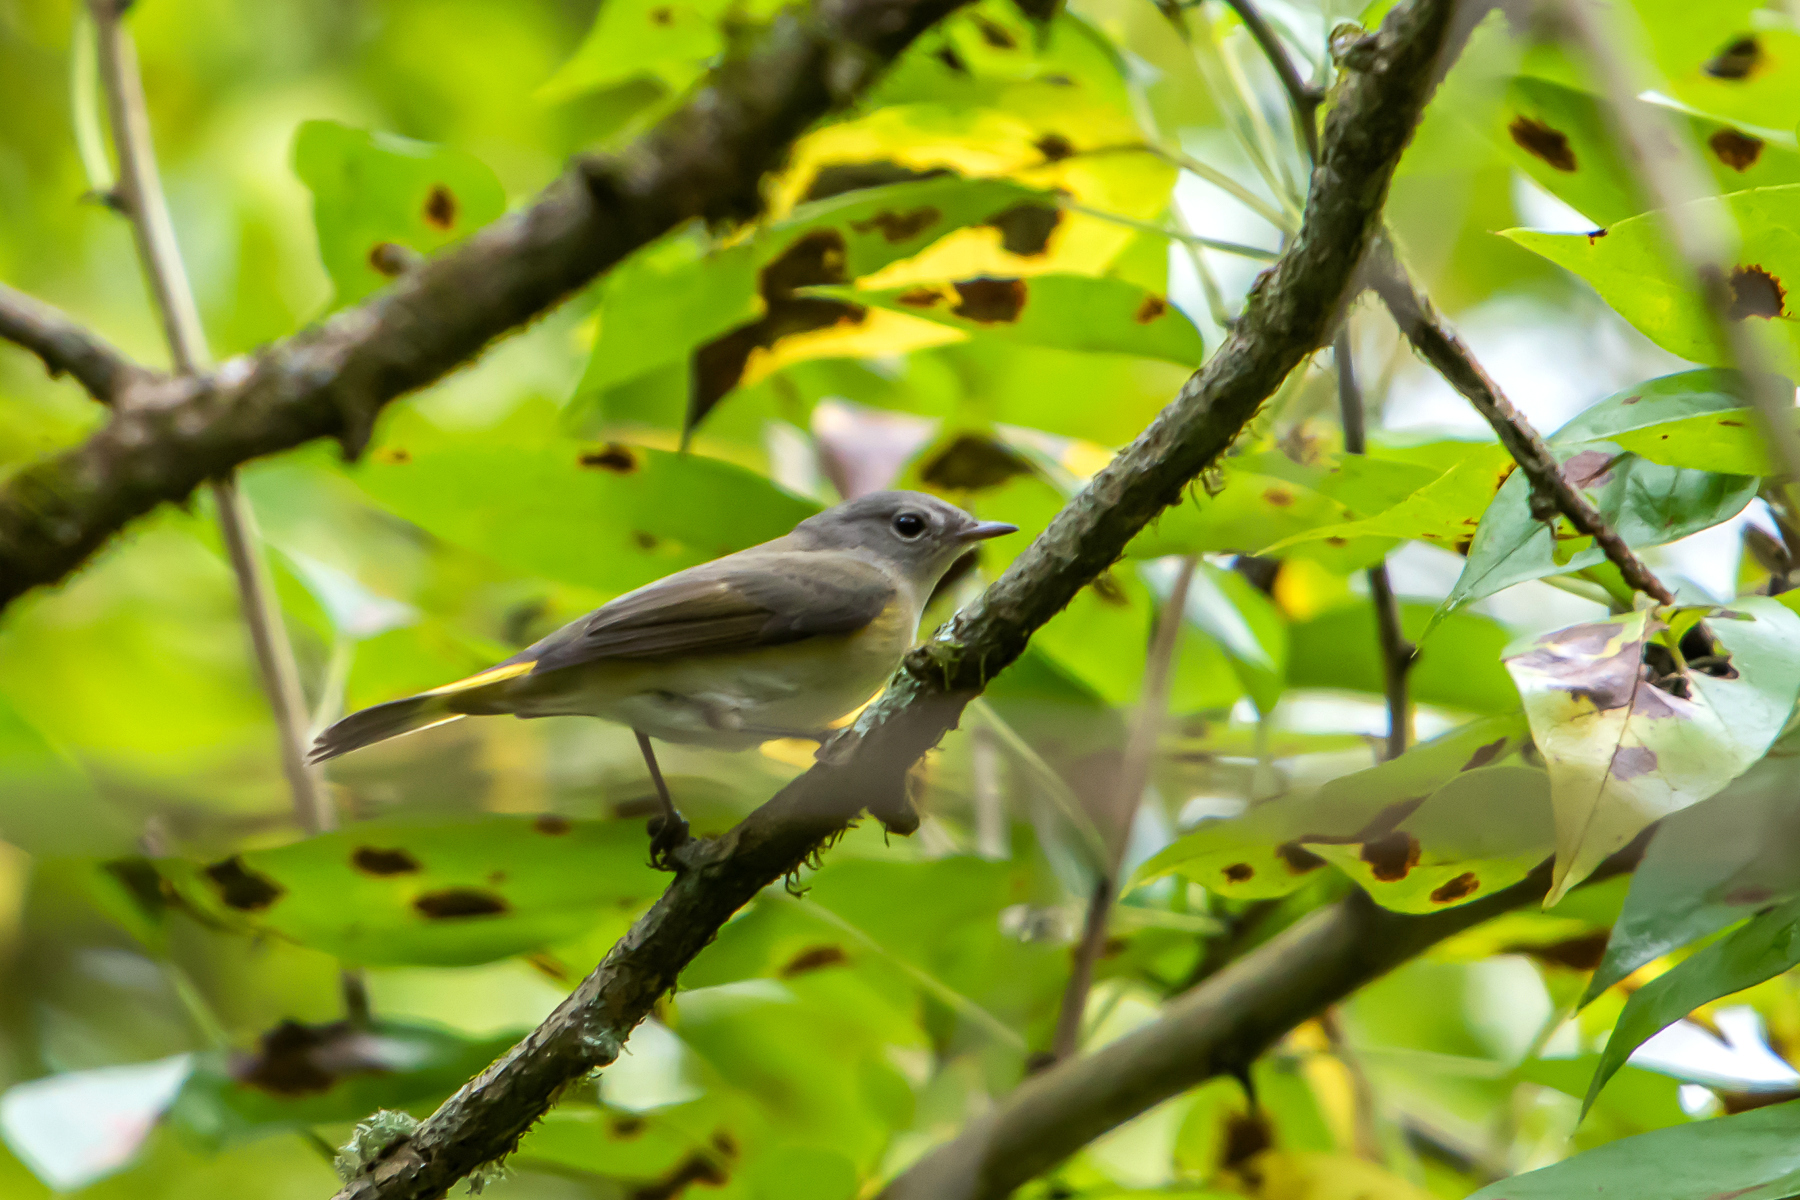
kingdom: Animalia
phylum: Chordata
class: Aves
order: Passeriformes
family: Parulidae
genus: Setophaga
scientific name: Setophaga ruticilla
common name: American redstart
